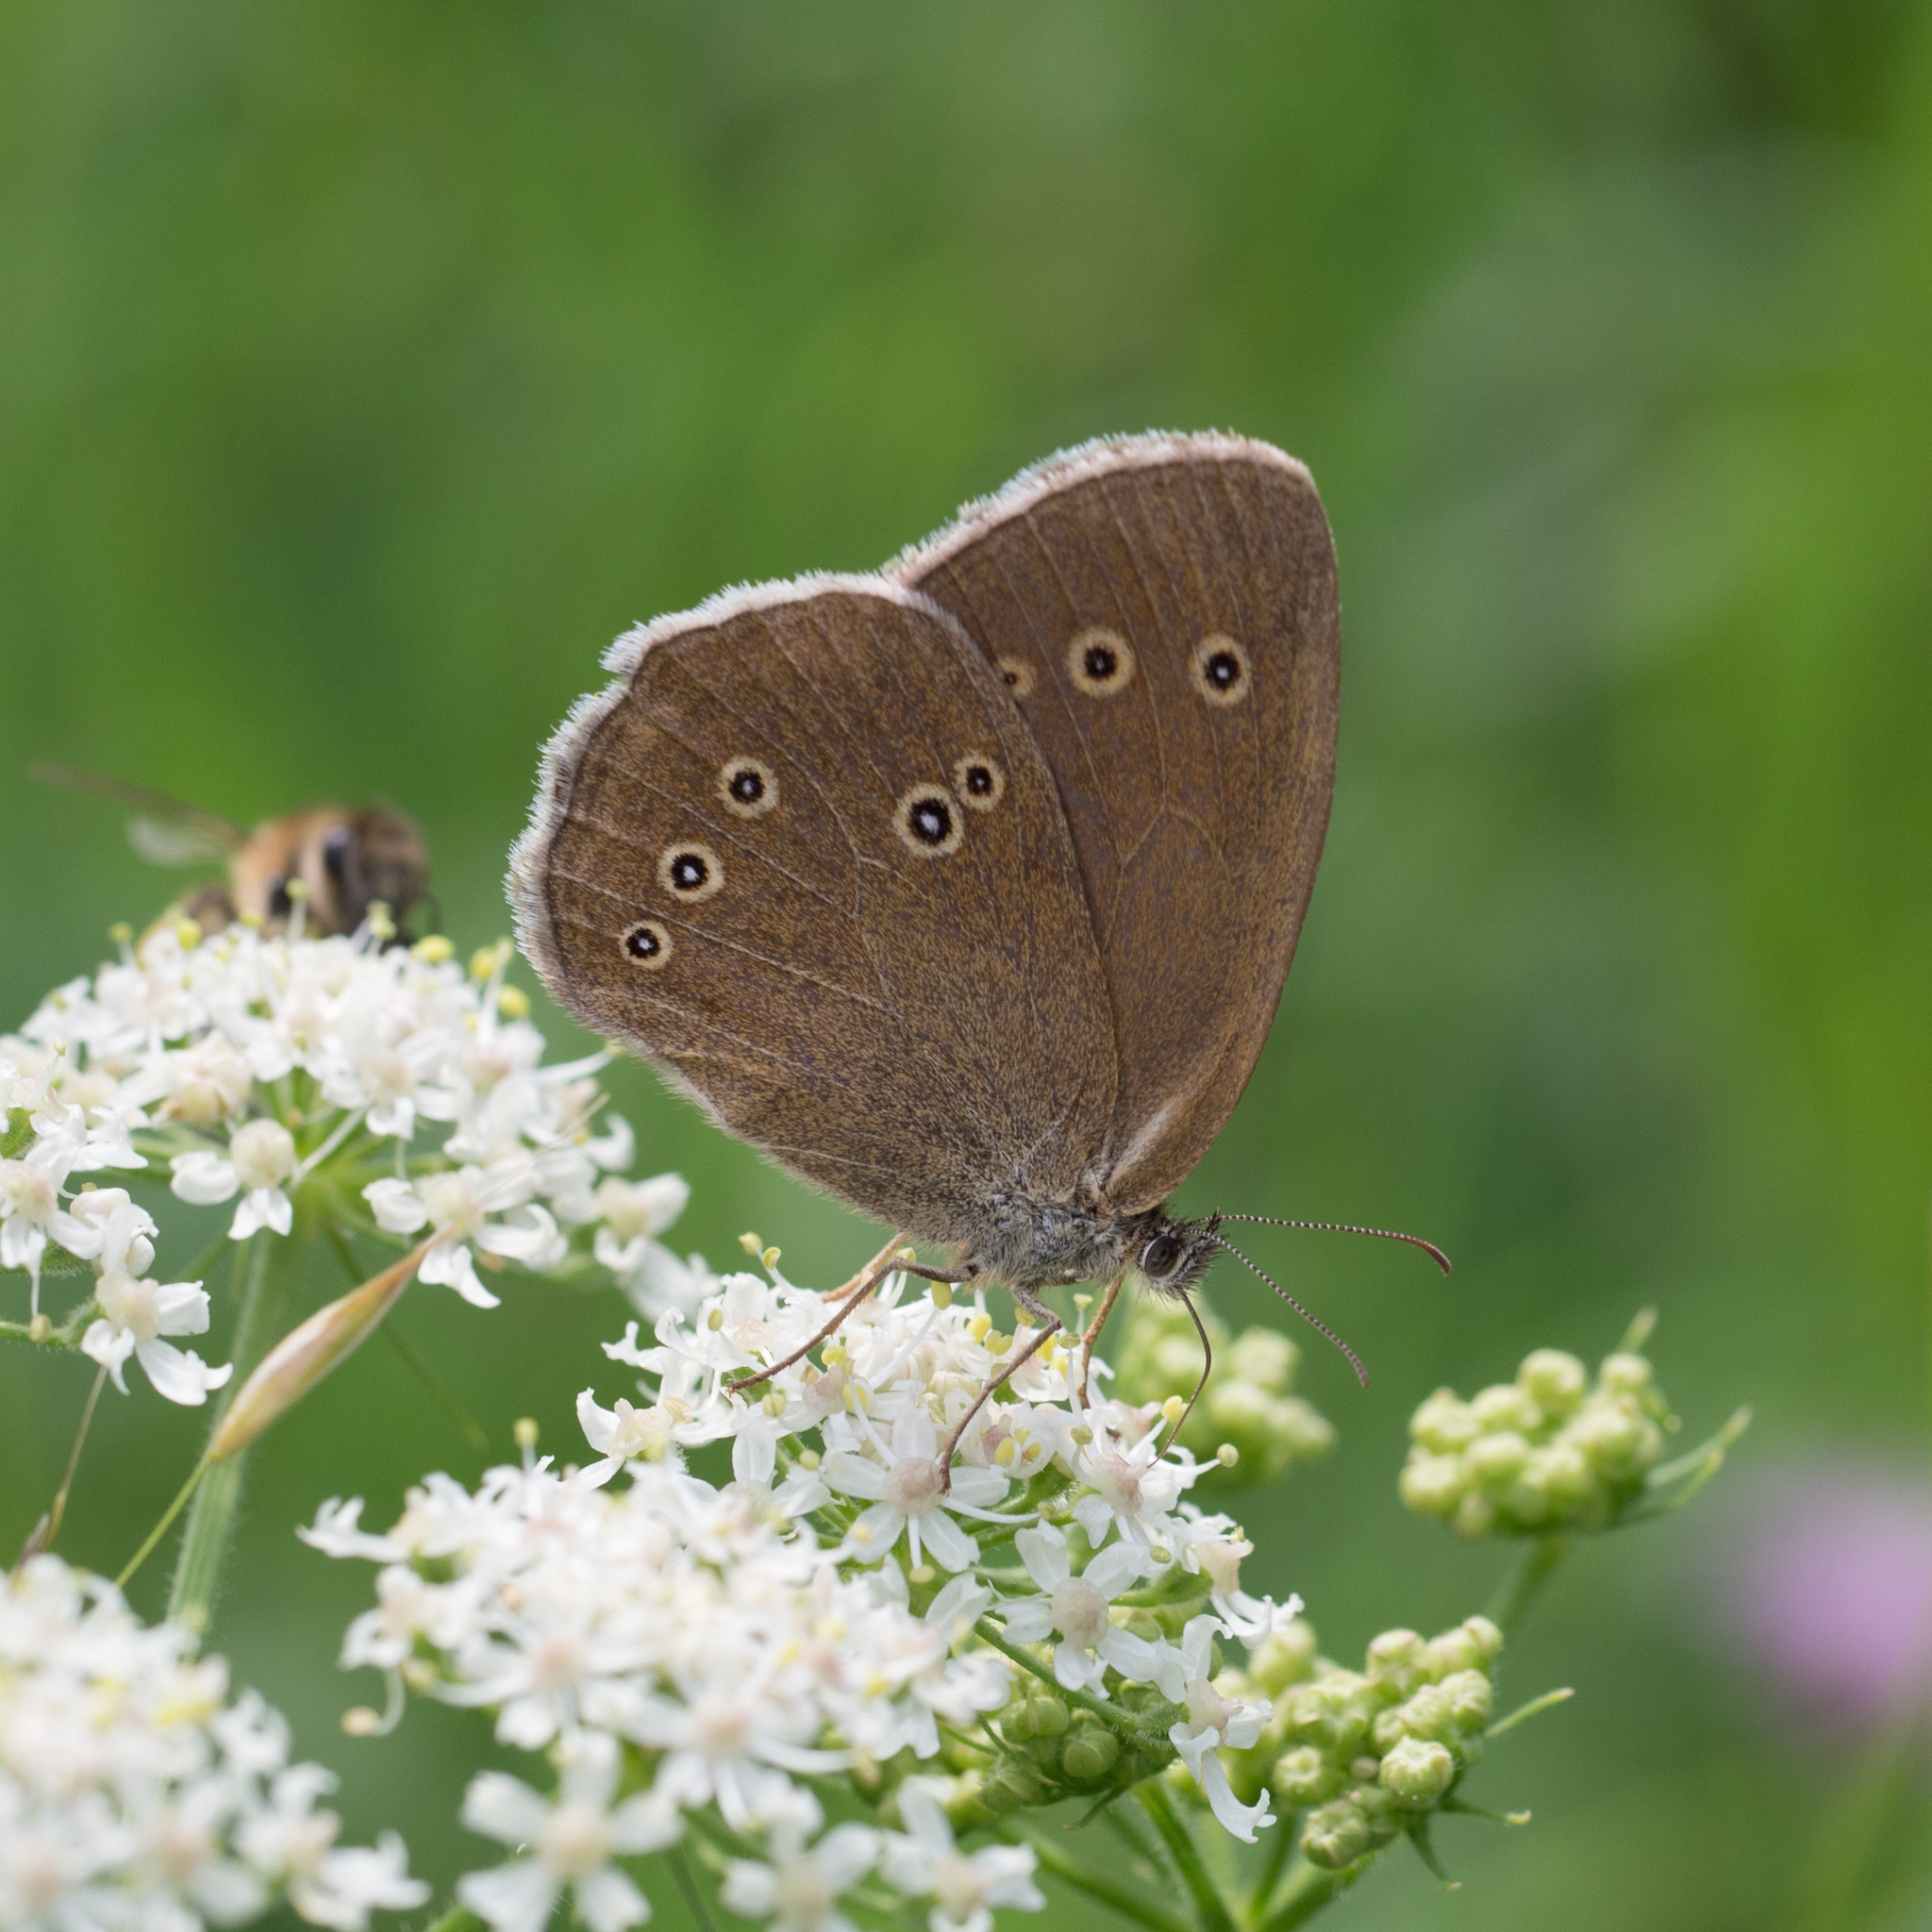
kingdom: Animalia
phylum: Arthropoda
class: Insecta
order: Lepidoptera
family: Nymphalidae
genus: Aphantopus
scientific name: Aphantopus hyperantus
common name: Ringlet
